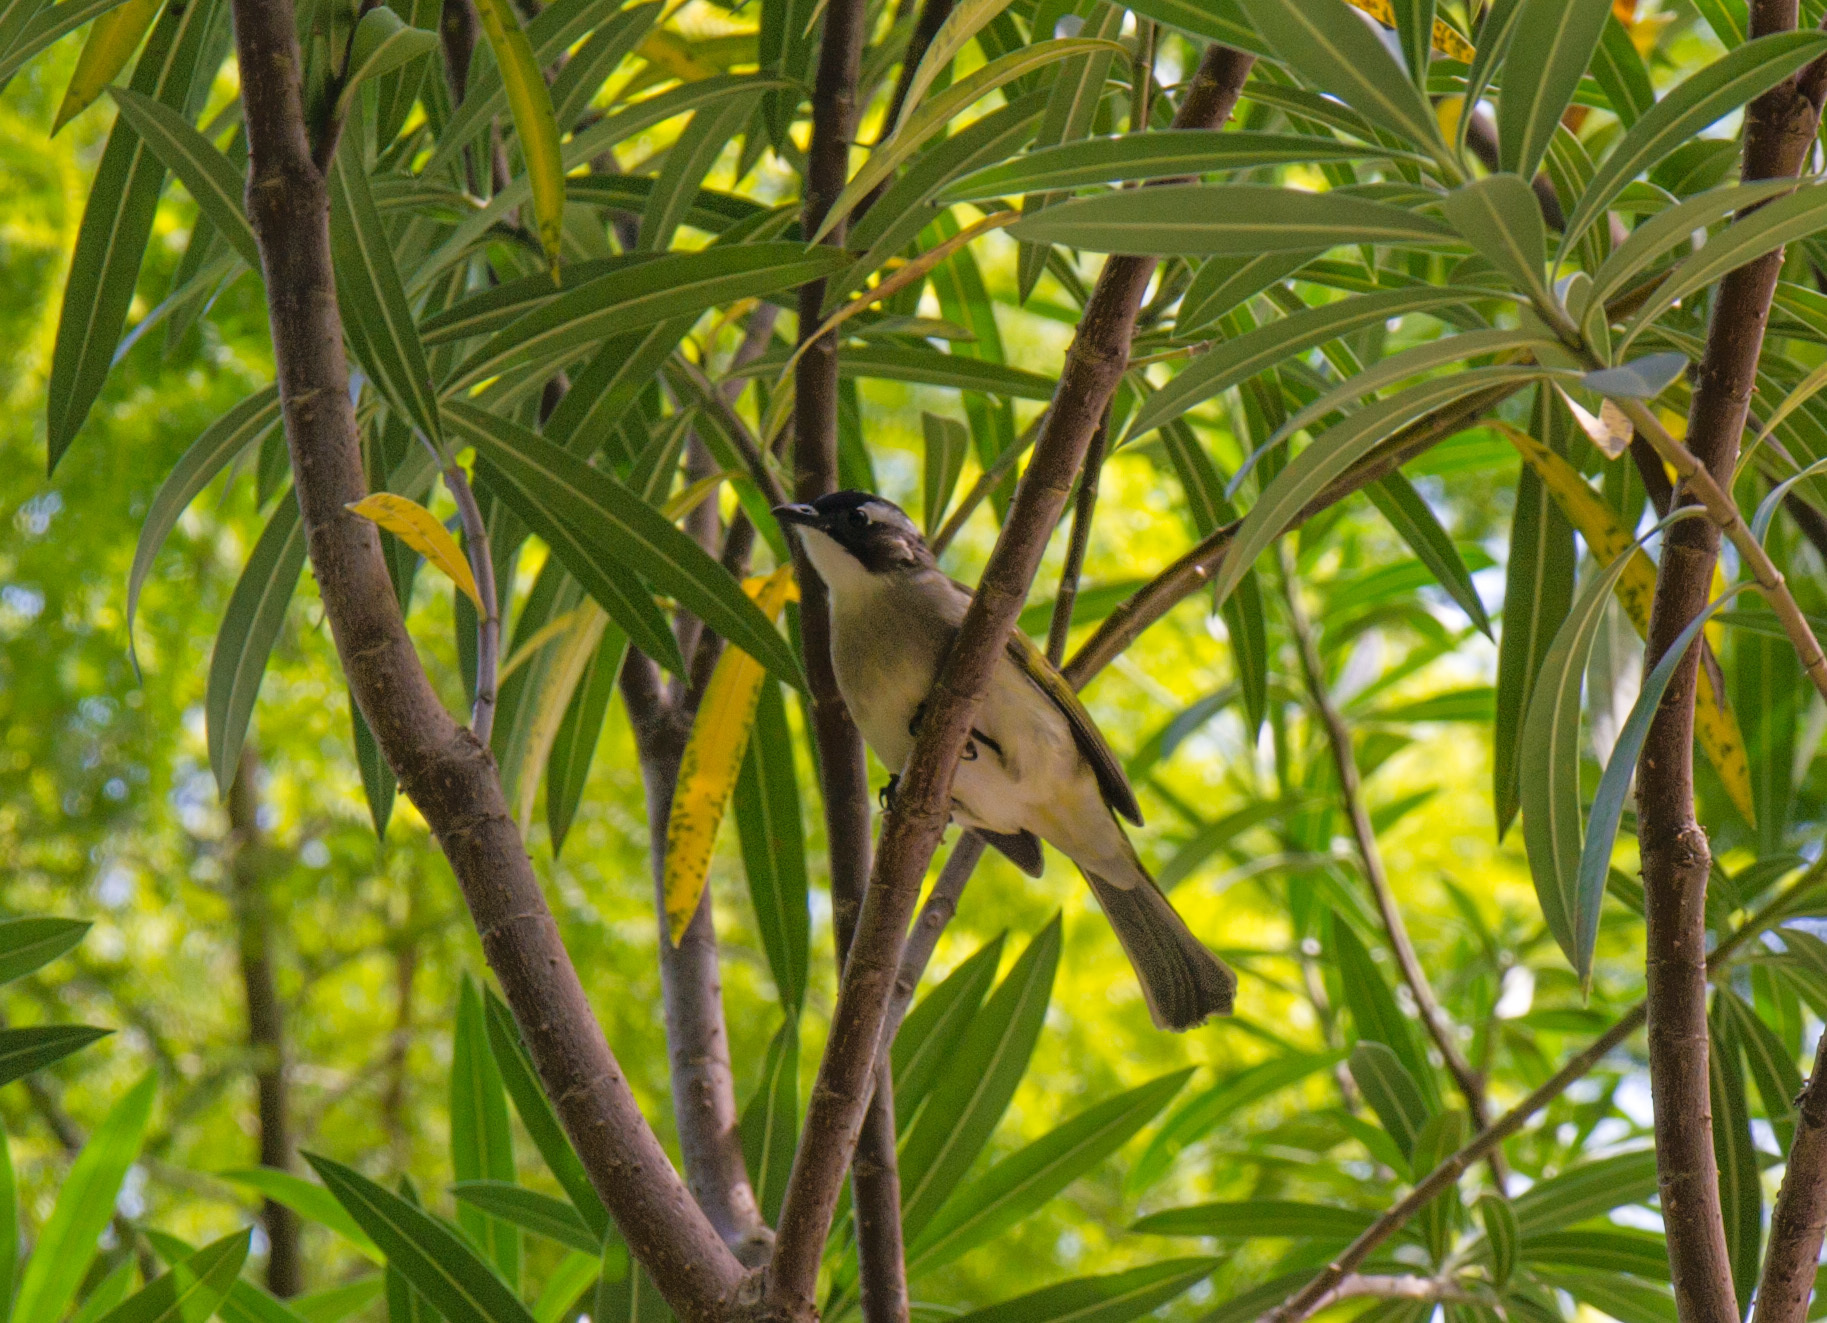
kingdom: Animalia
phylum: Chordata
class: Aves
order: Passeriformes
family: Pycnonotidae
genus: Pycnonotus
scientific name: Pycnonotus sinensis
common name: Light-vented bulbul
